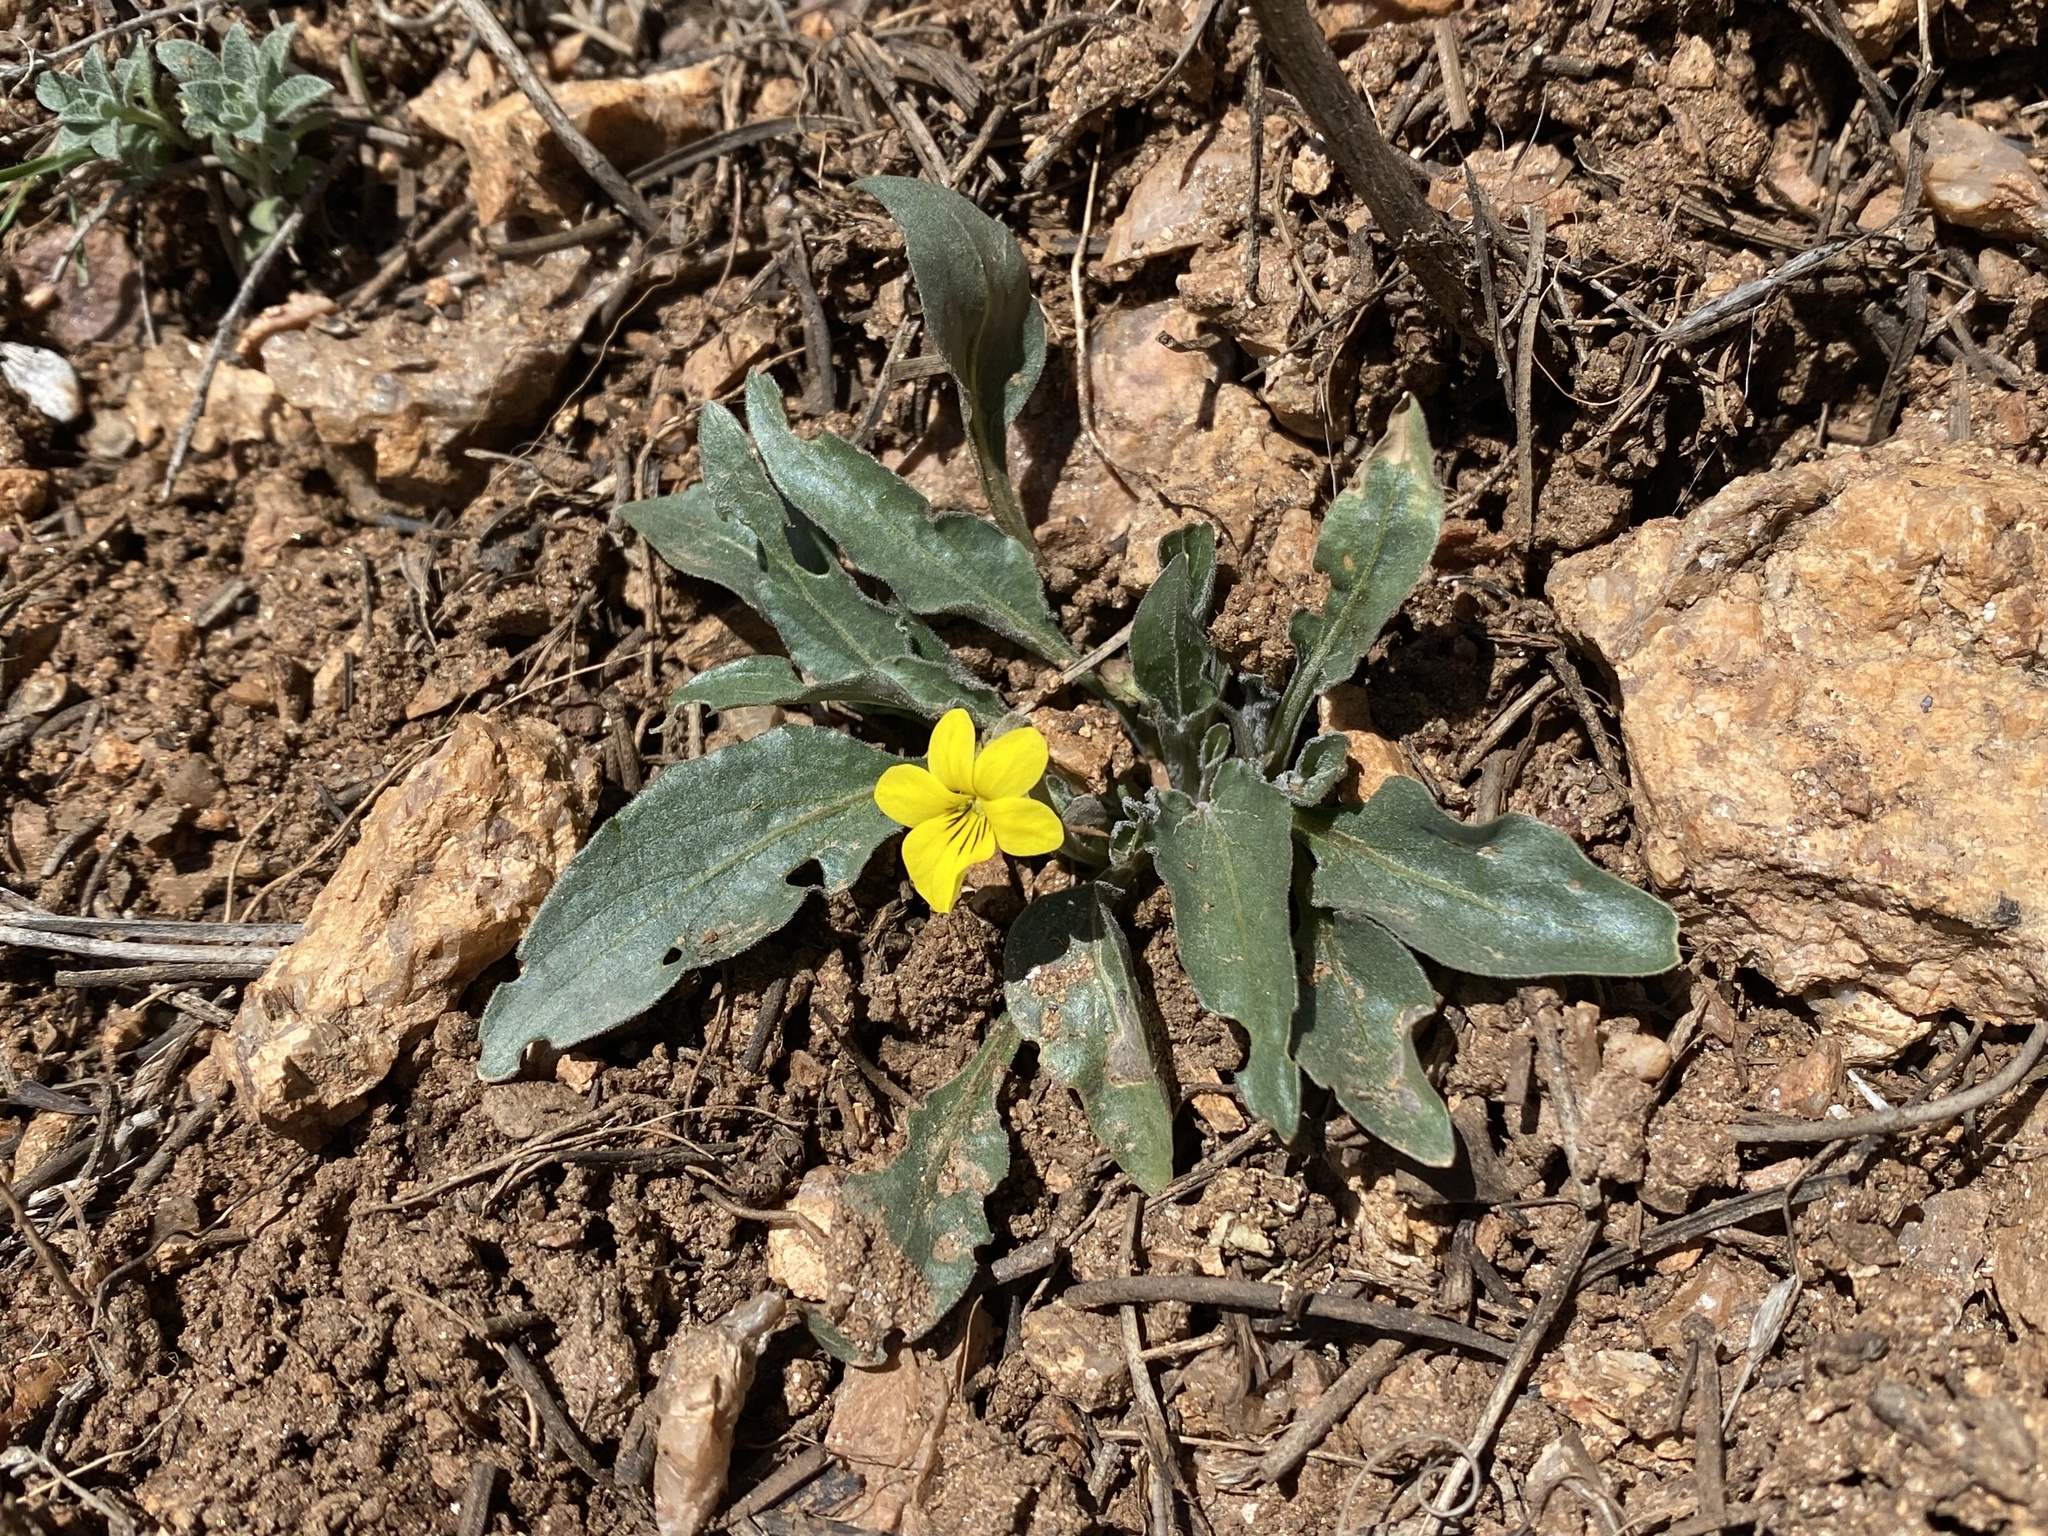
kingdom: Plantae
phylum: Tracheophyta
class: Magnoliopsida
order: Malpighiales
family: Violaceae
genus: Viola
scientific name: Viola nuttallii
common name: Yellow prairie violet
